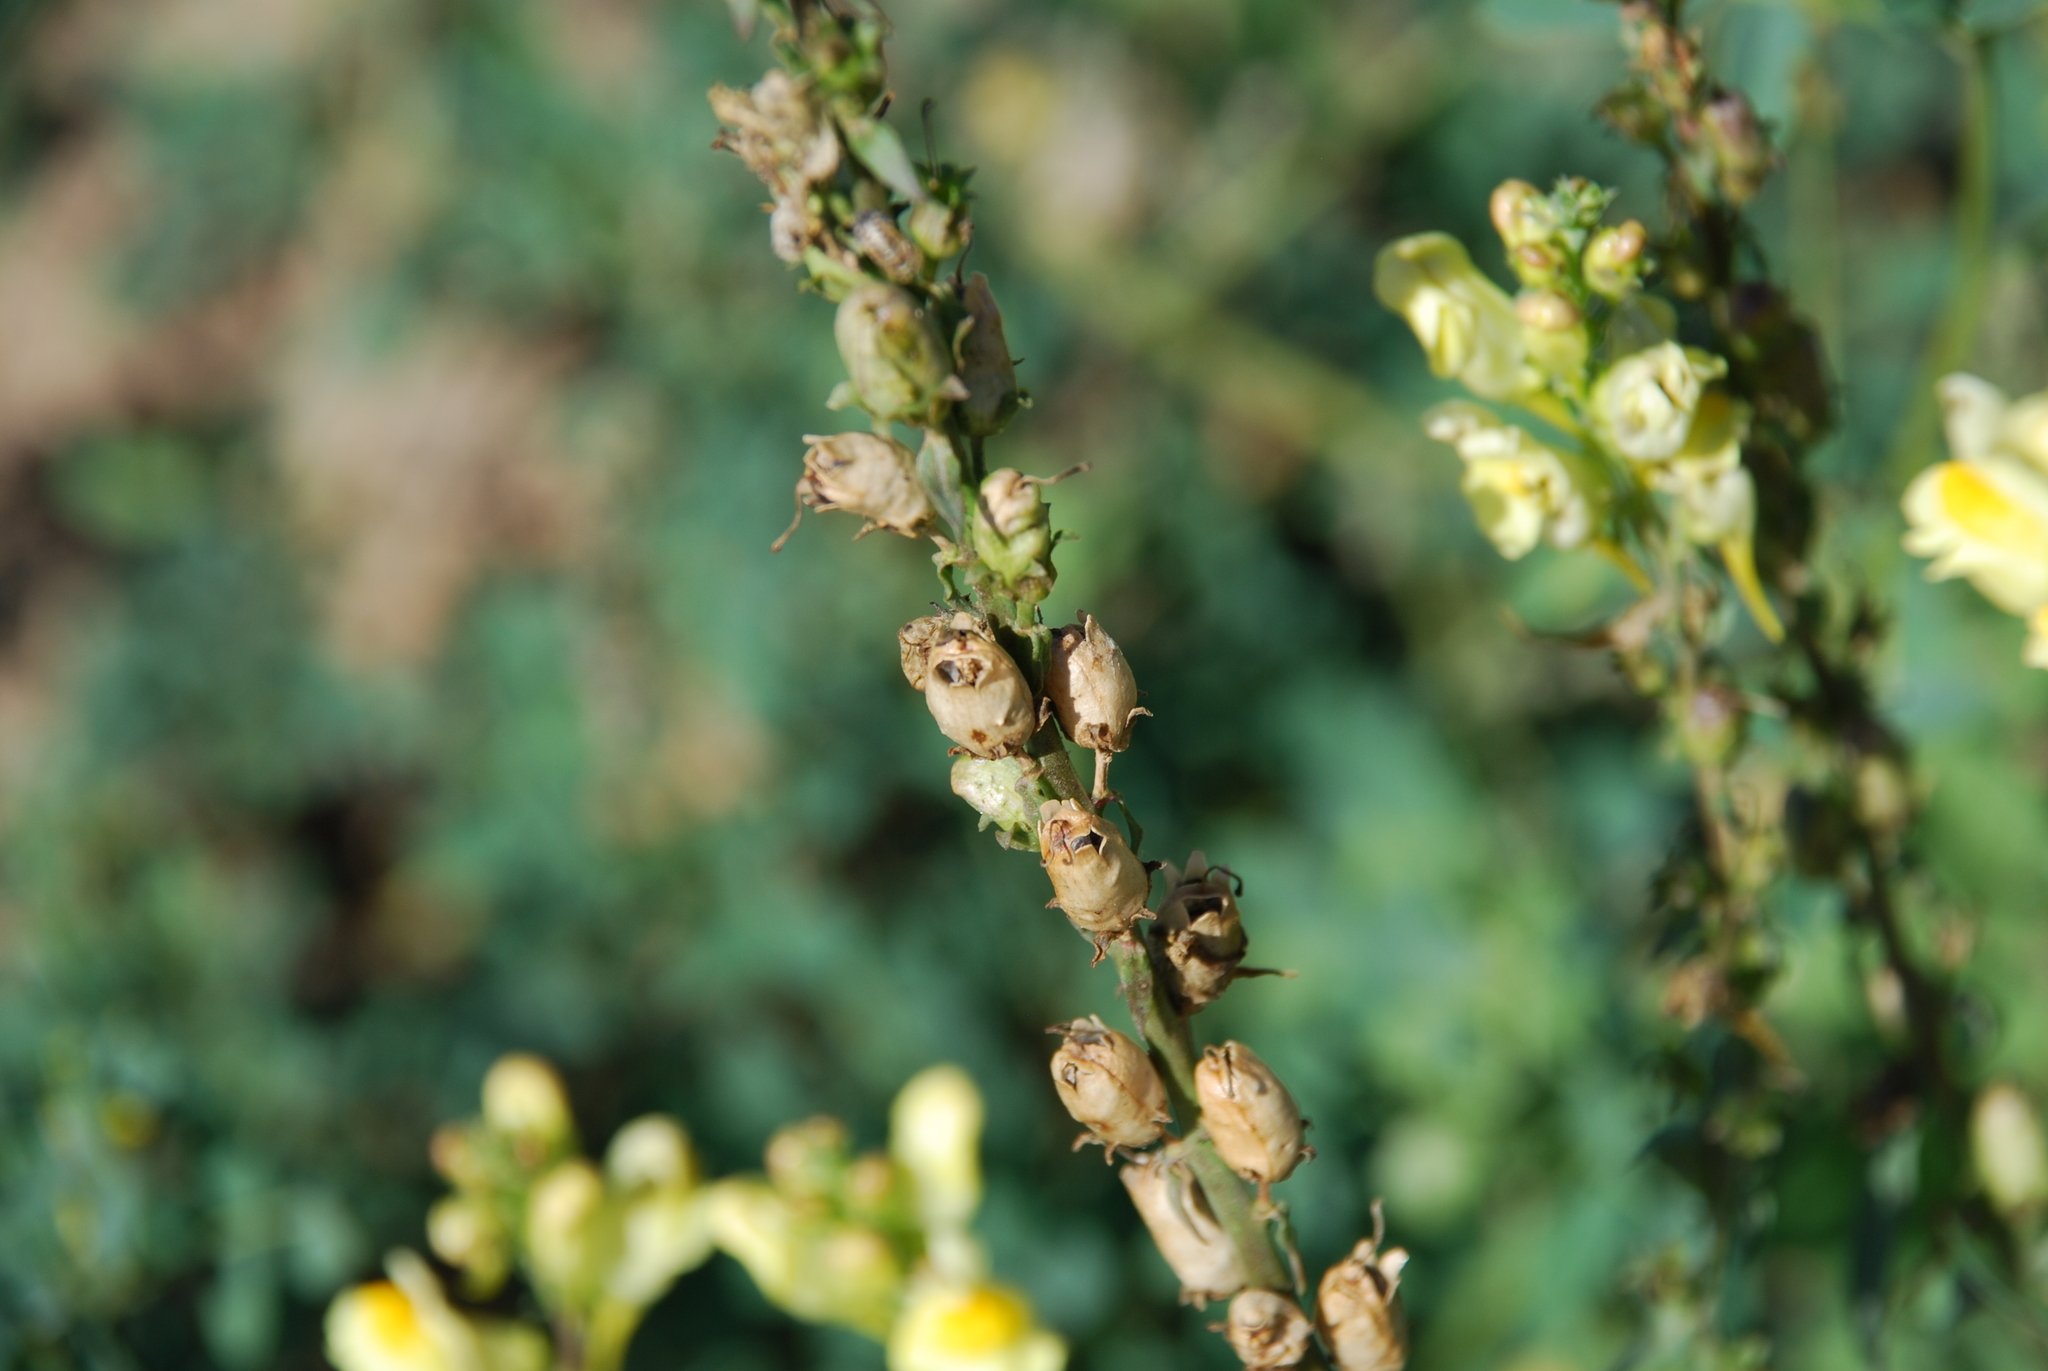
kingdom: Plantae
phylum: Tracheophyta
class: Magnoliopsida
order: Lamiales
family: Plantaginaceae
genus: Linaria
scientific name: Linaria vulgaris
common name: Butter and eggs
